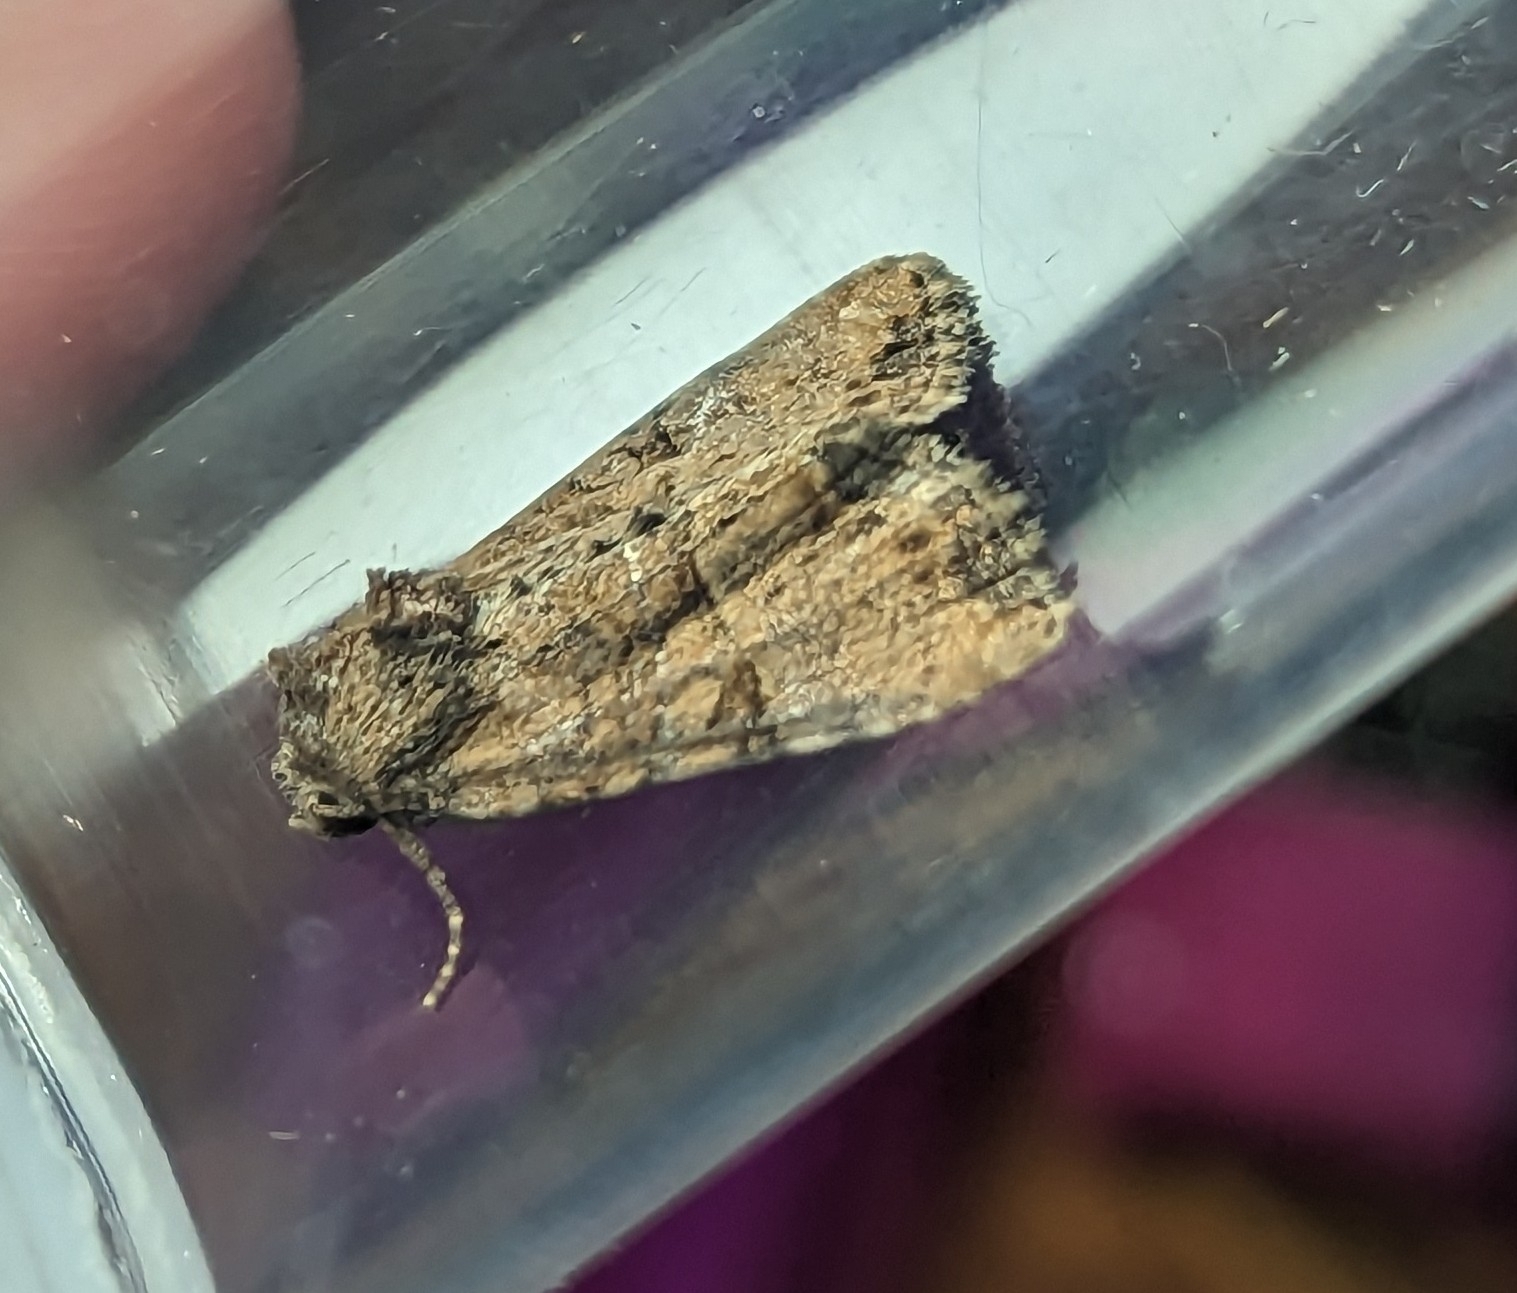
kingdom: Animalia
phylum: Arthropoda
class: Insecta
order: Lepidoptera
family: Noctuidae
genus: Mesoligia
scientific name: Mesoligia furuncula
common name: Cloaked minor
